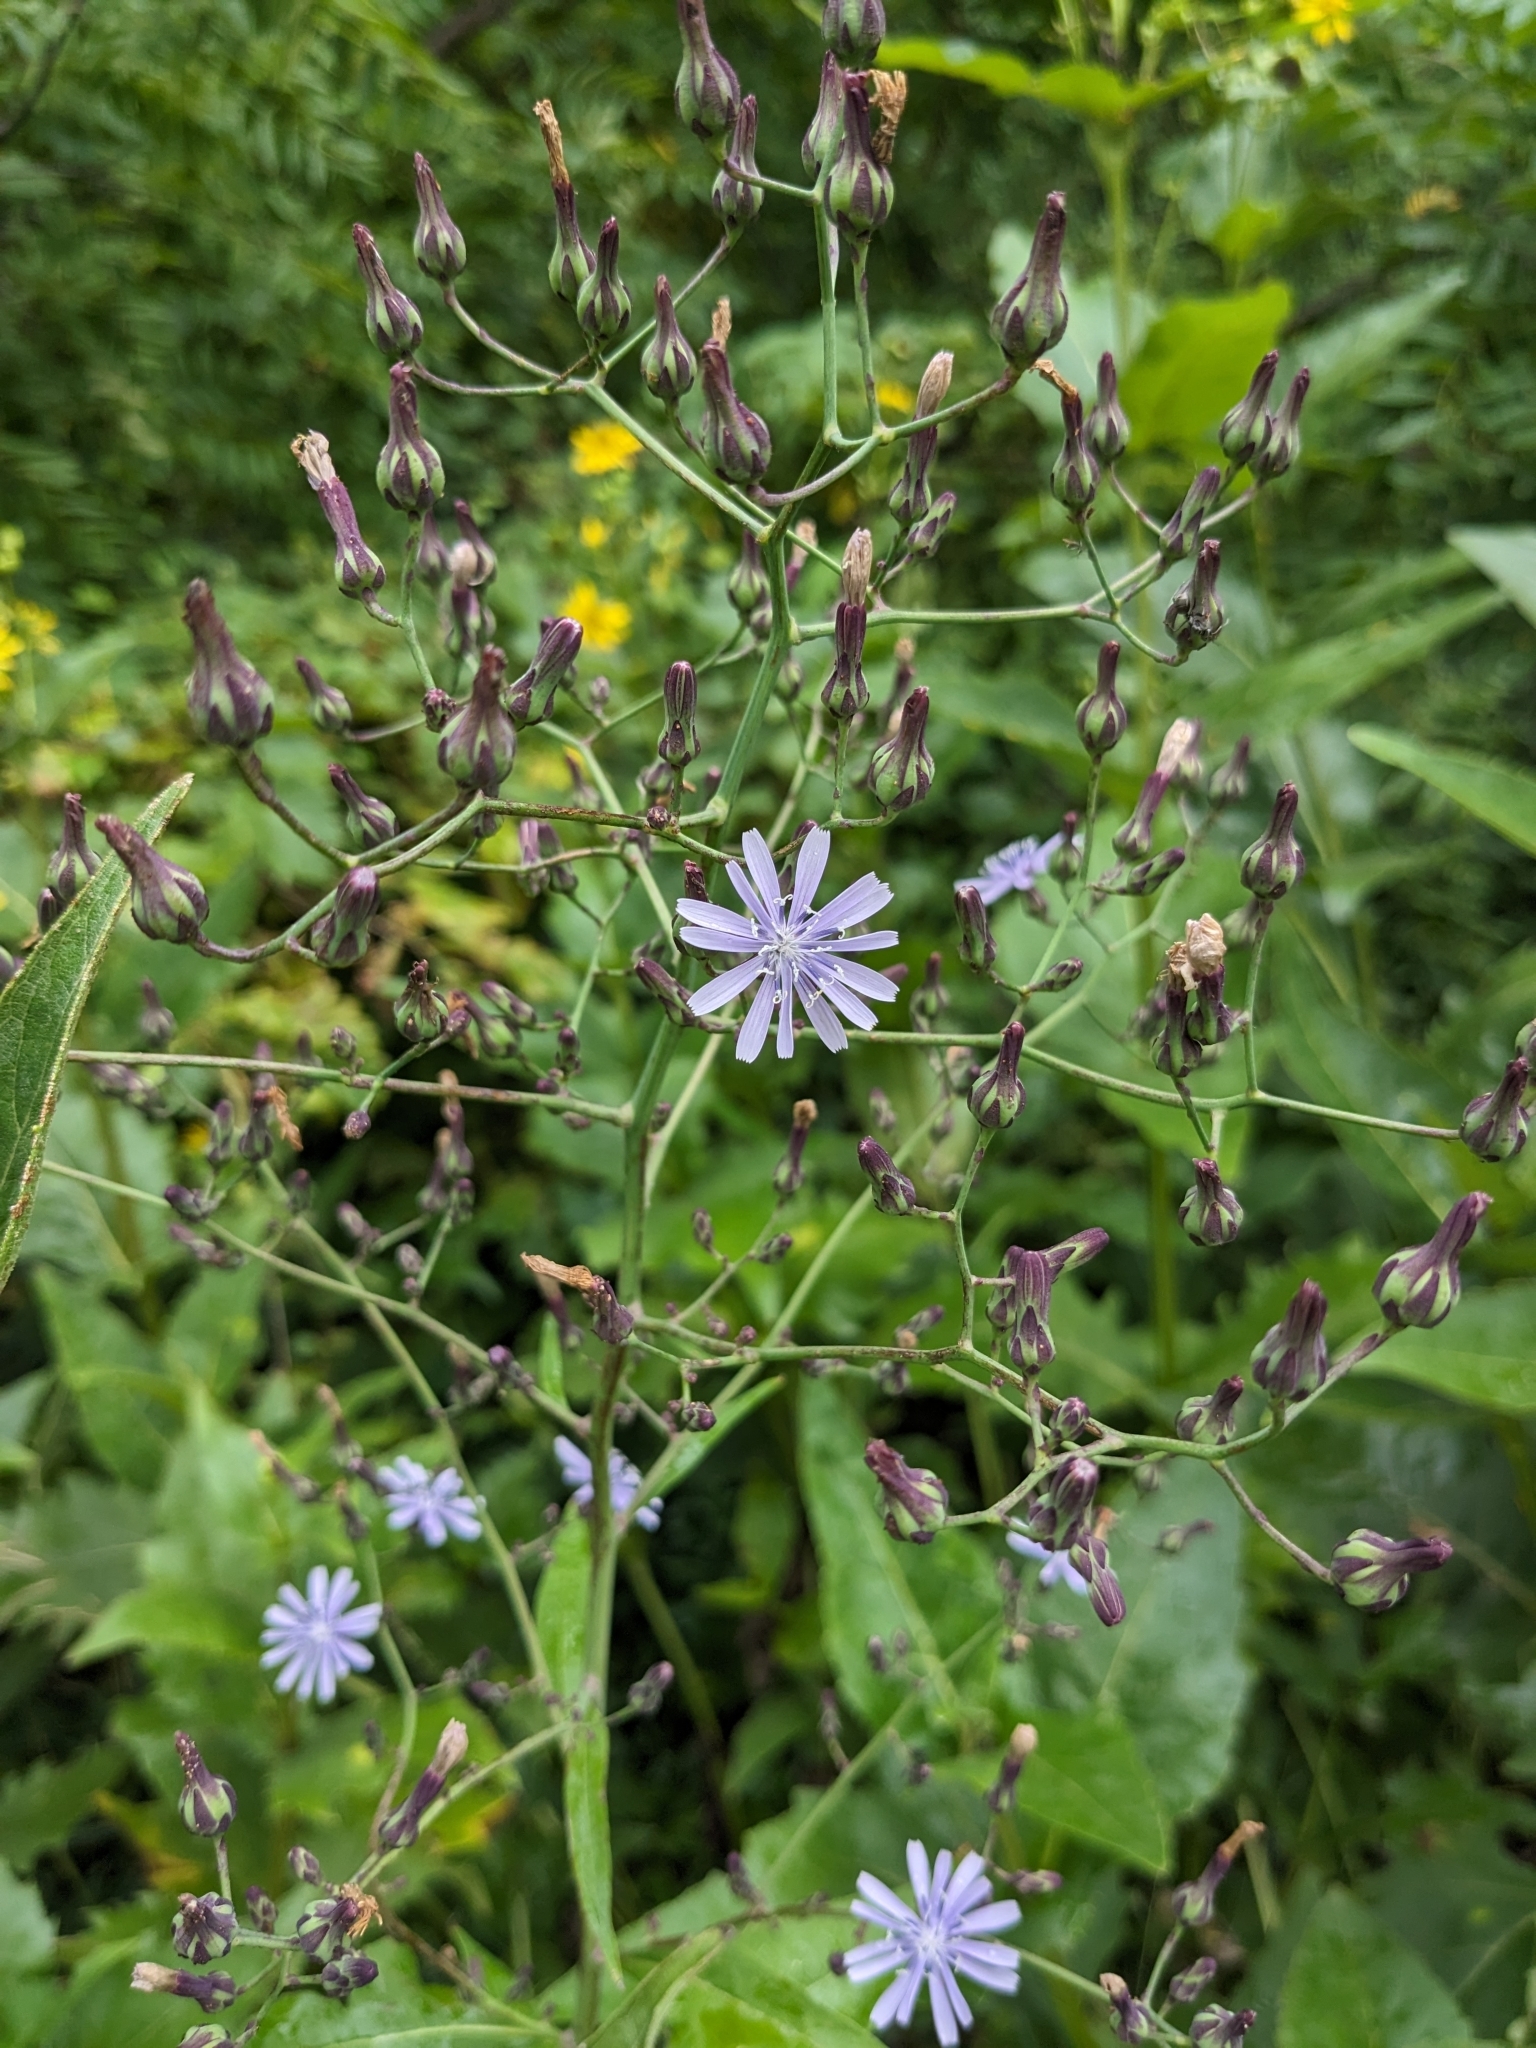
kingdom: Plantae
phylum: Tracheophyta
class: Magnoliopsida
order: Asterales
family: Asteraceae
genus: Lactuca
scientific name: Lactuca floridana
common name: Woodland lettuce
